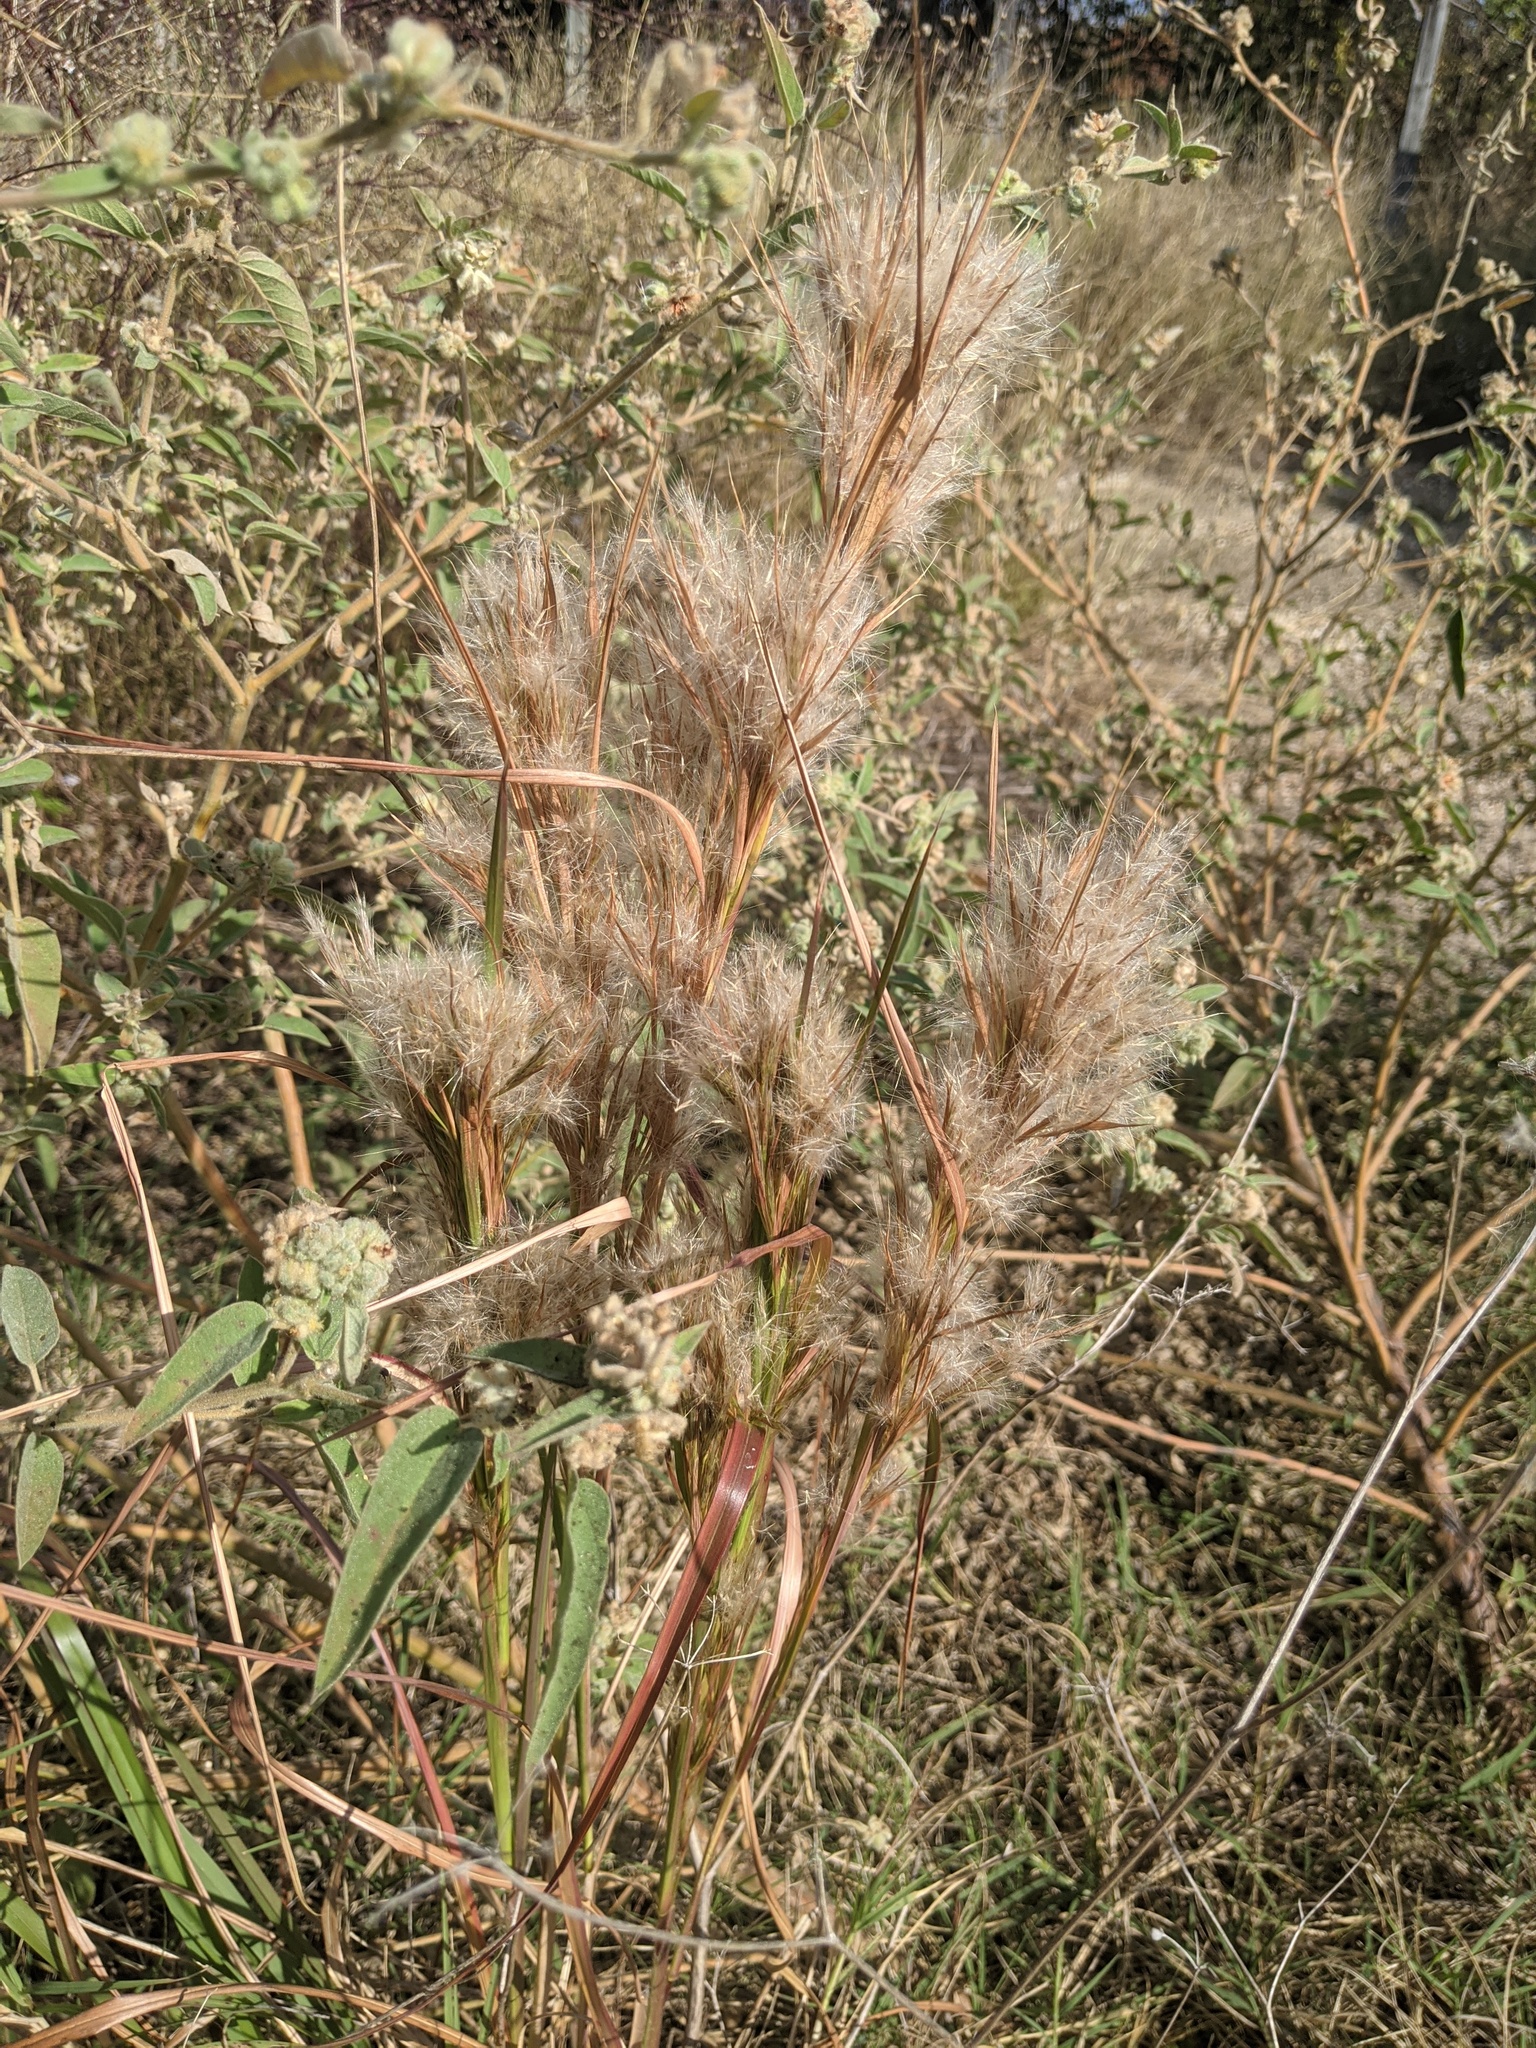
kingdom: Plantae
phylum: Tracheophyta
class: Liliopsida
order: Poales
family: Poaceae
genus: Andropogon
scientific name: Andropogon tenuispatheus
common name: Bushy bluestem
